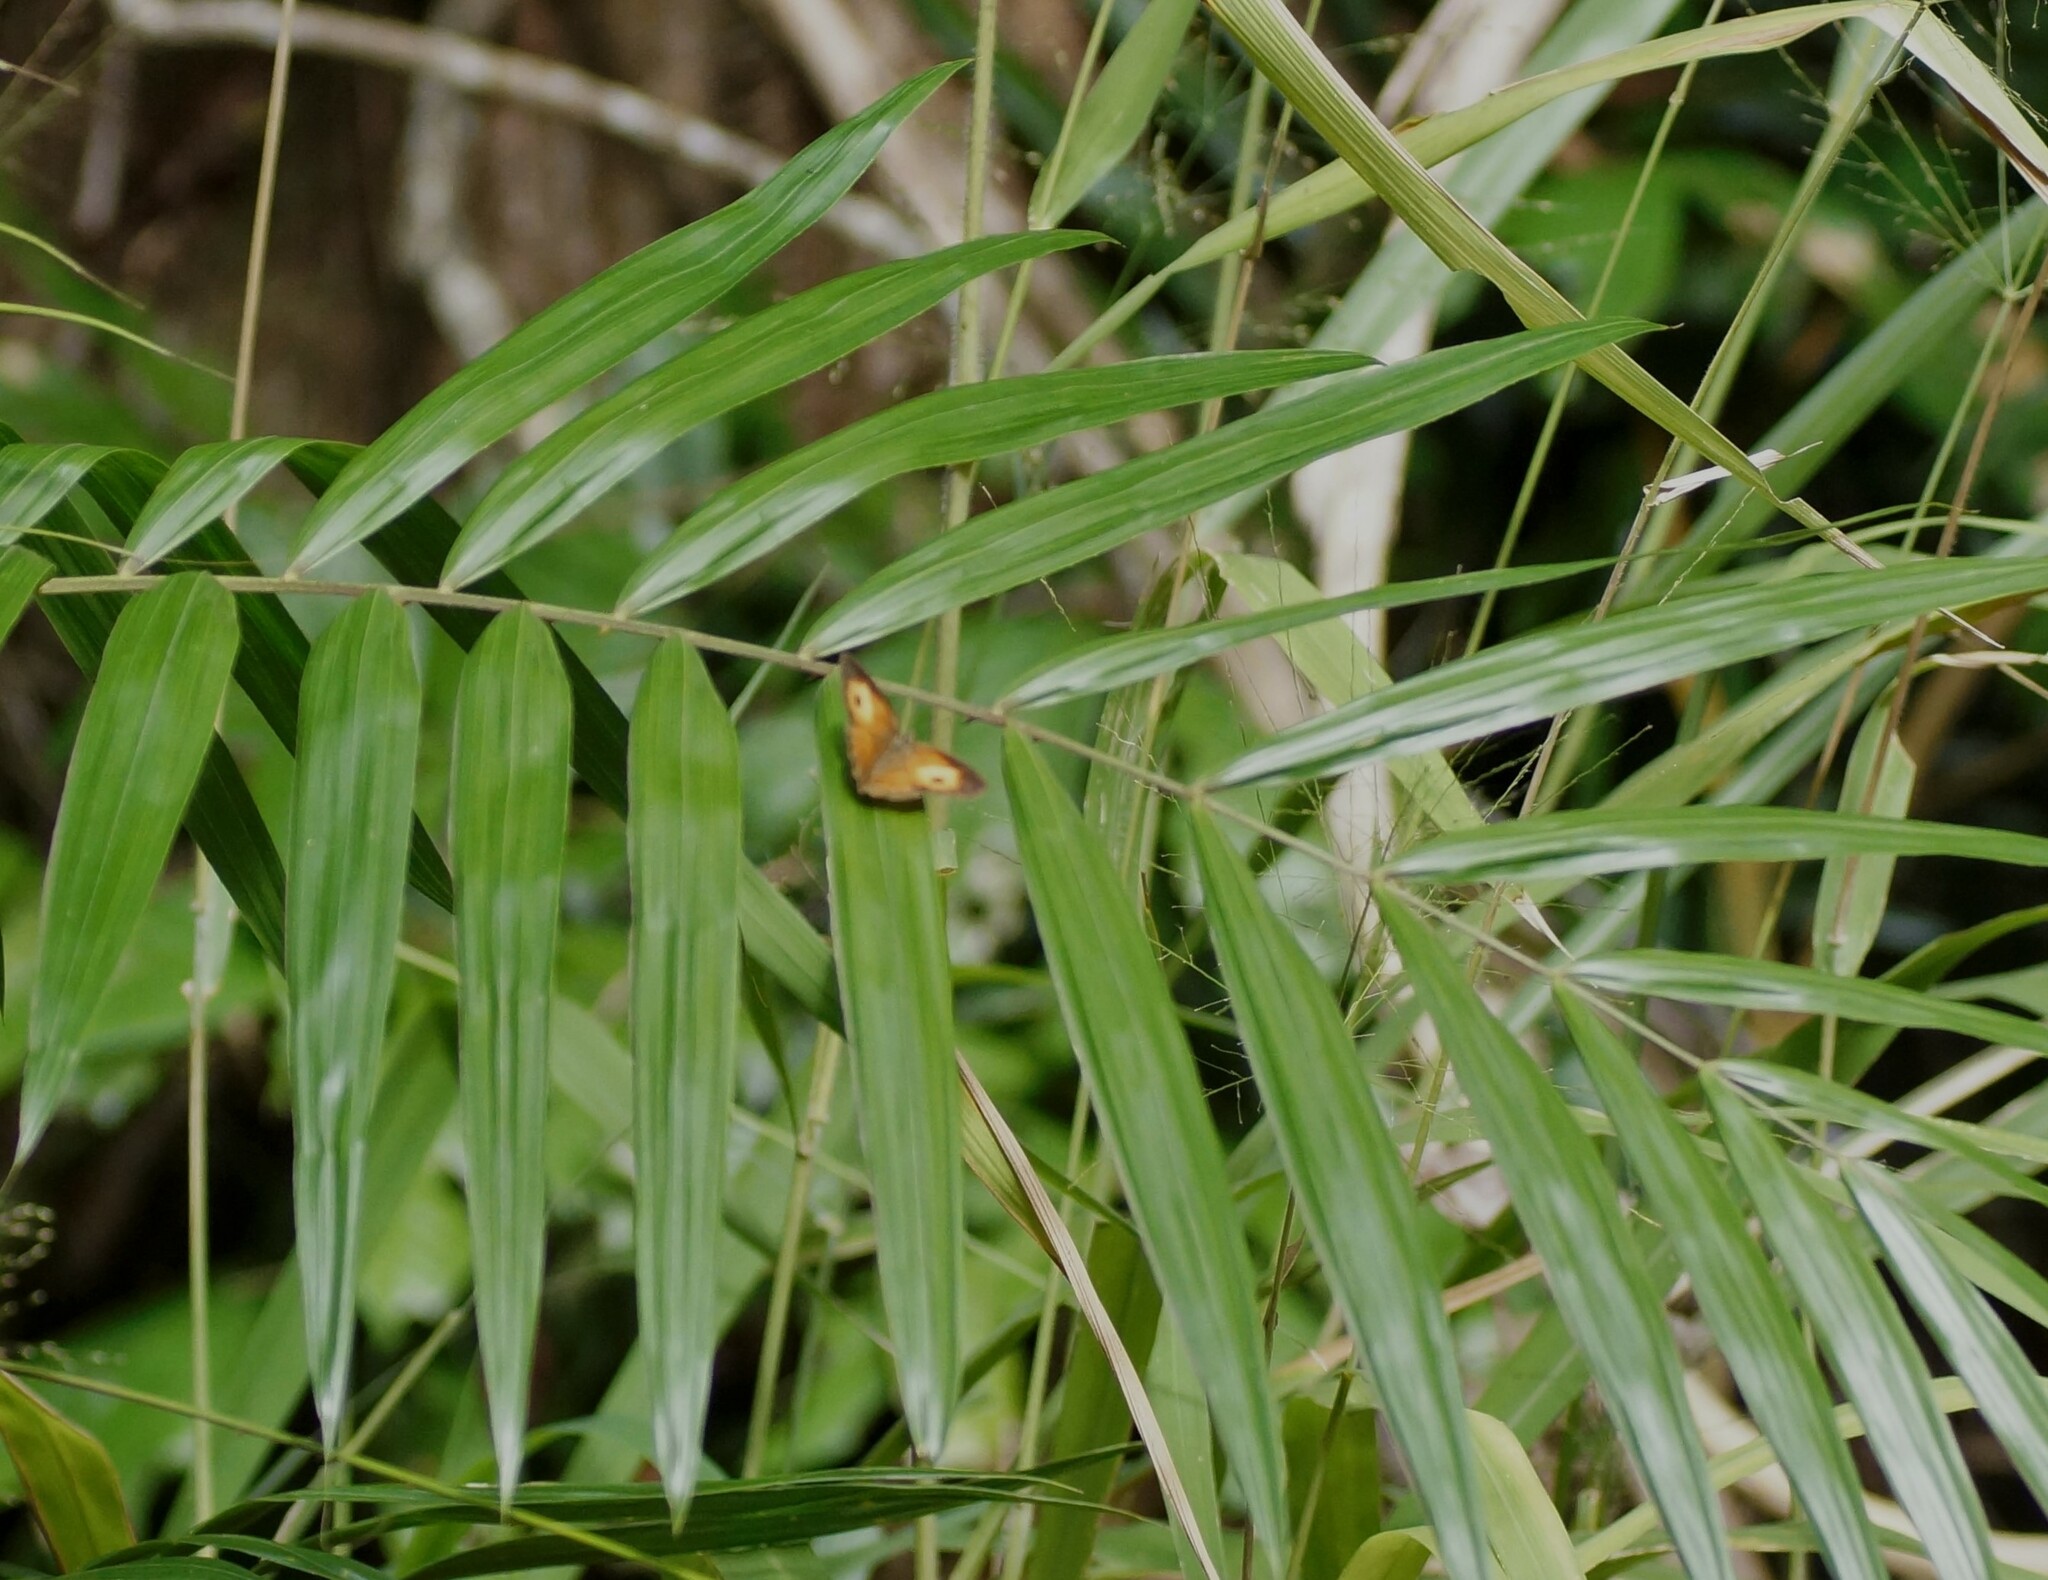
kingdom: Animalia
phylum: Arthropoda
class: Insecta
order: Lepidoptera
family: Nymphalidae
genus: Mycalesis
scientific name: Mycalesis terminus
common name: Orange bushbrown
